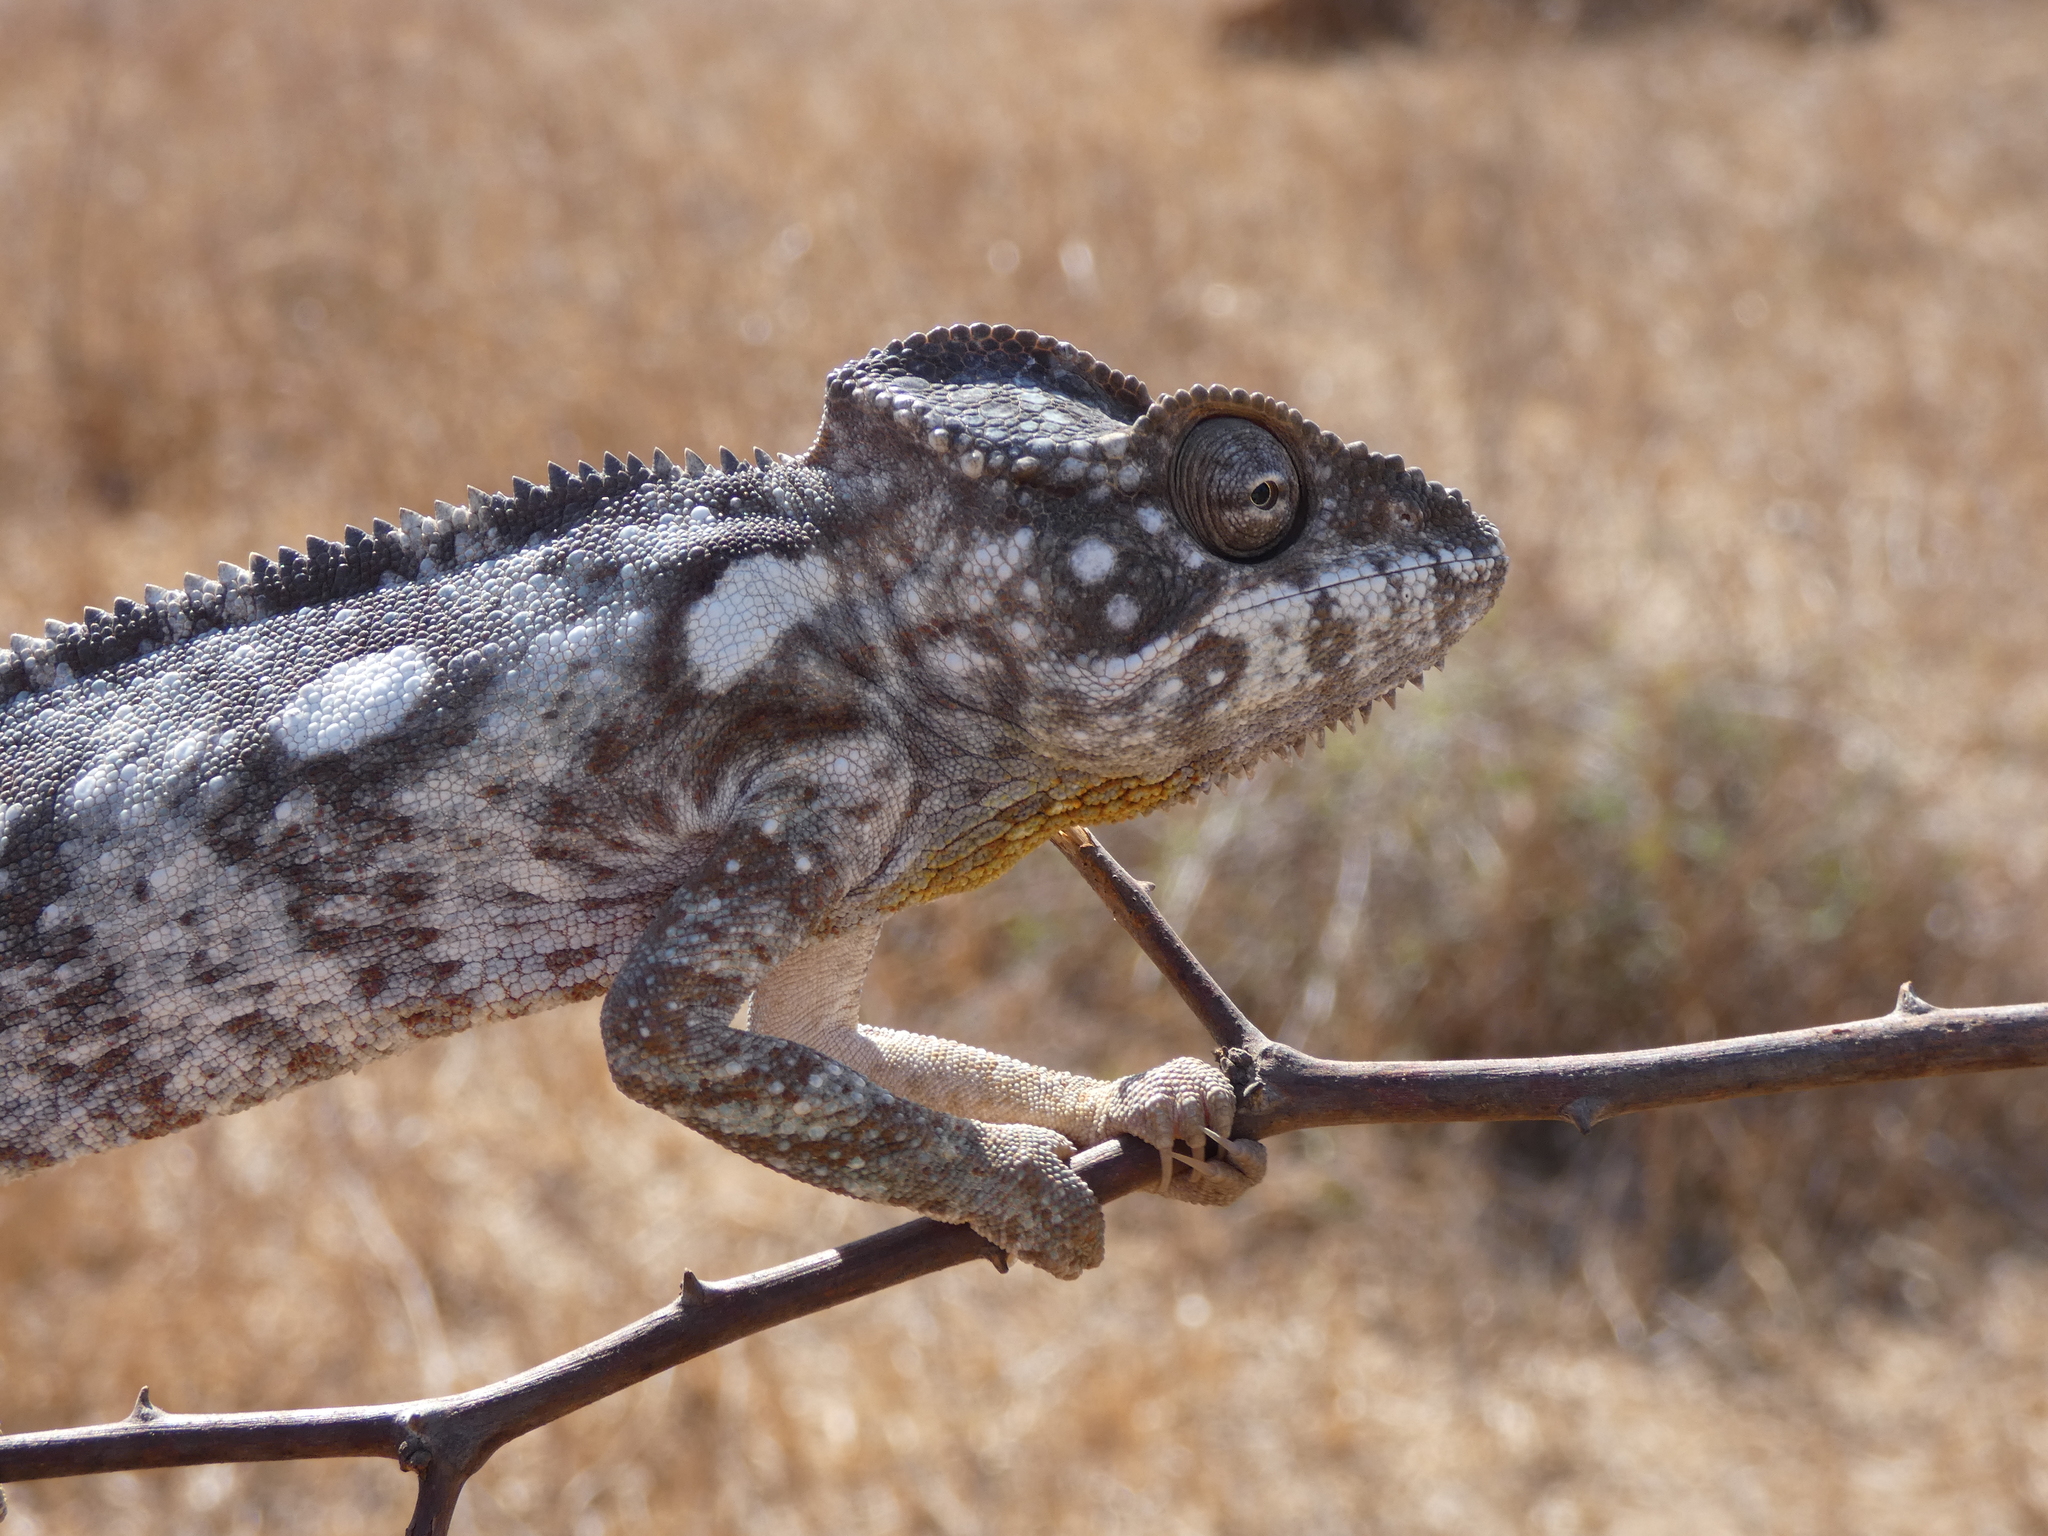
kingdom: Animalia
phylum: Chordata
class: Squamata
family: Chamaeleonidae
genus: Furcifer
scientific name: Furcifer oustaleti
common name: Oustalet's chameleon
